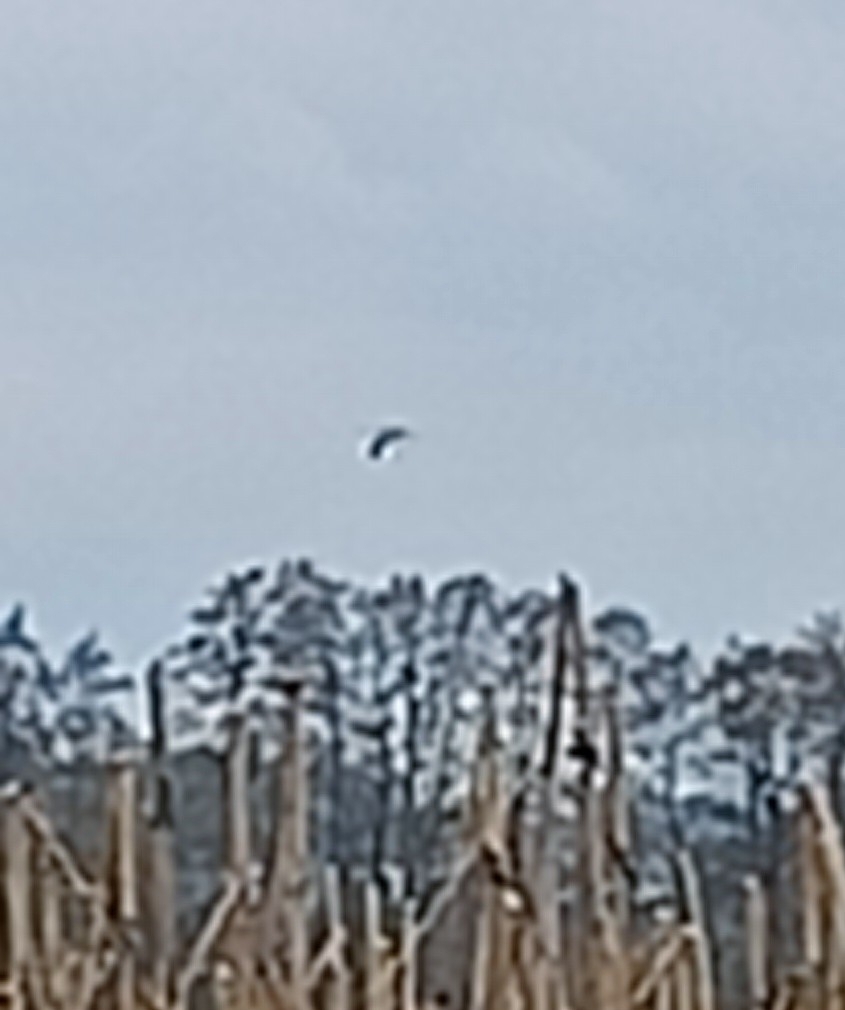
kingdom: Animalia
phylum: Chordata
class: Aves
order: Gruiformes
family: Gruidae
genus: Grus
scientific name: Grus grus
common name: Common crane
